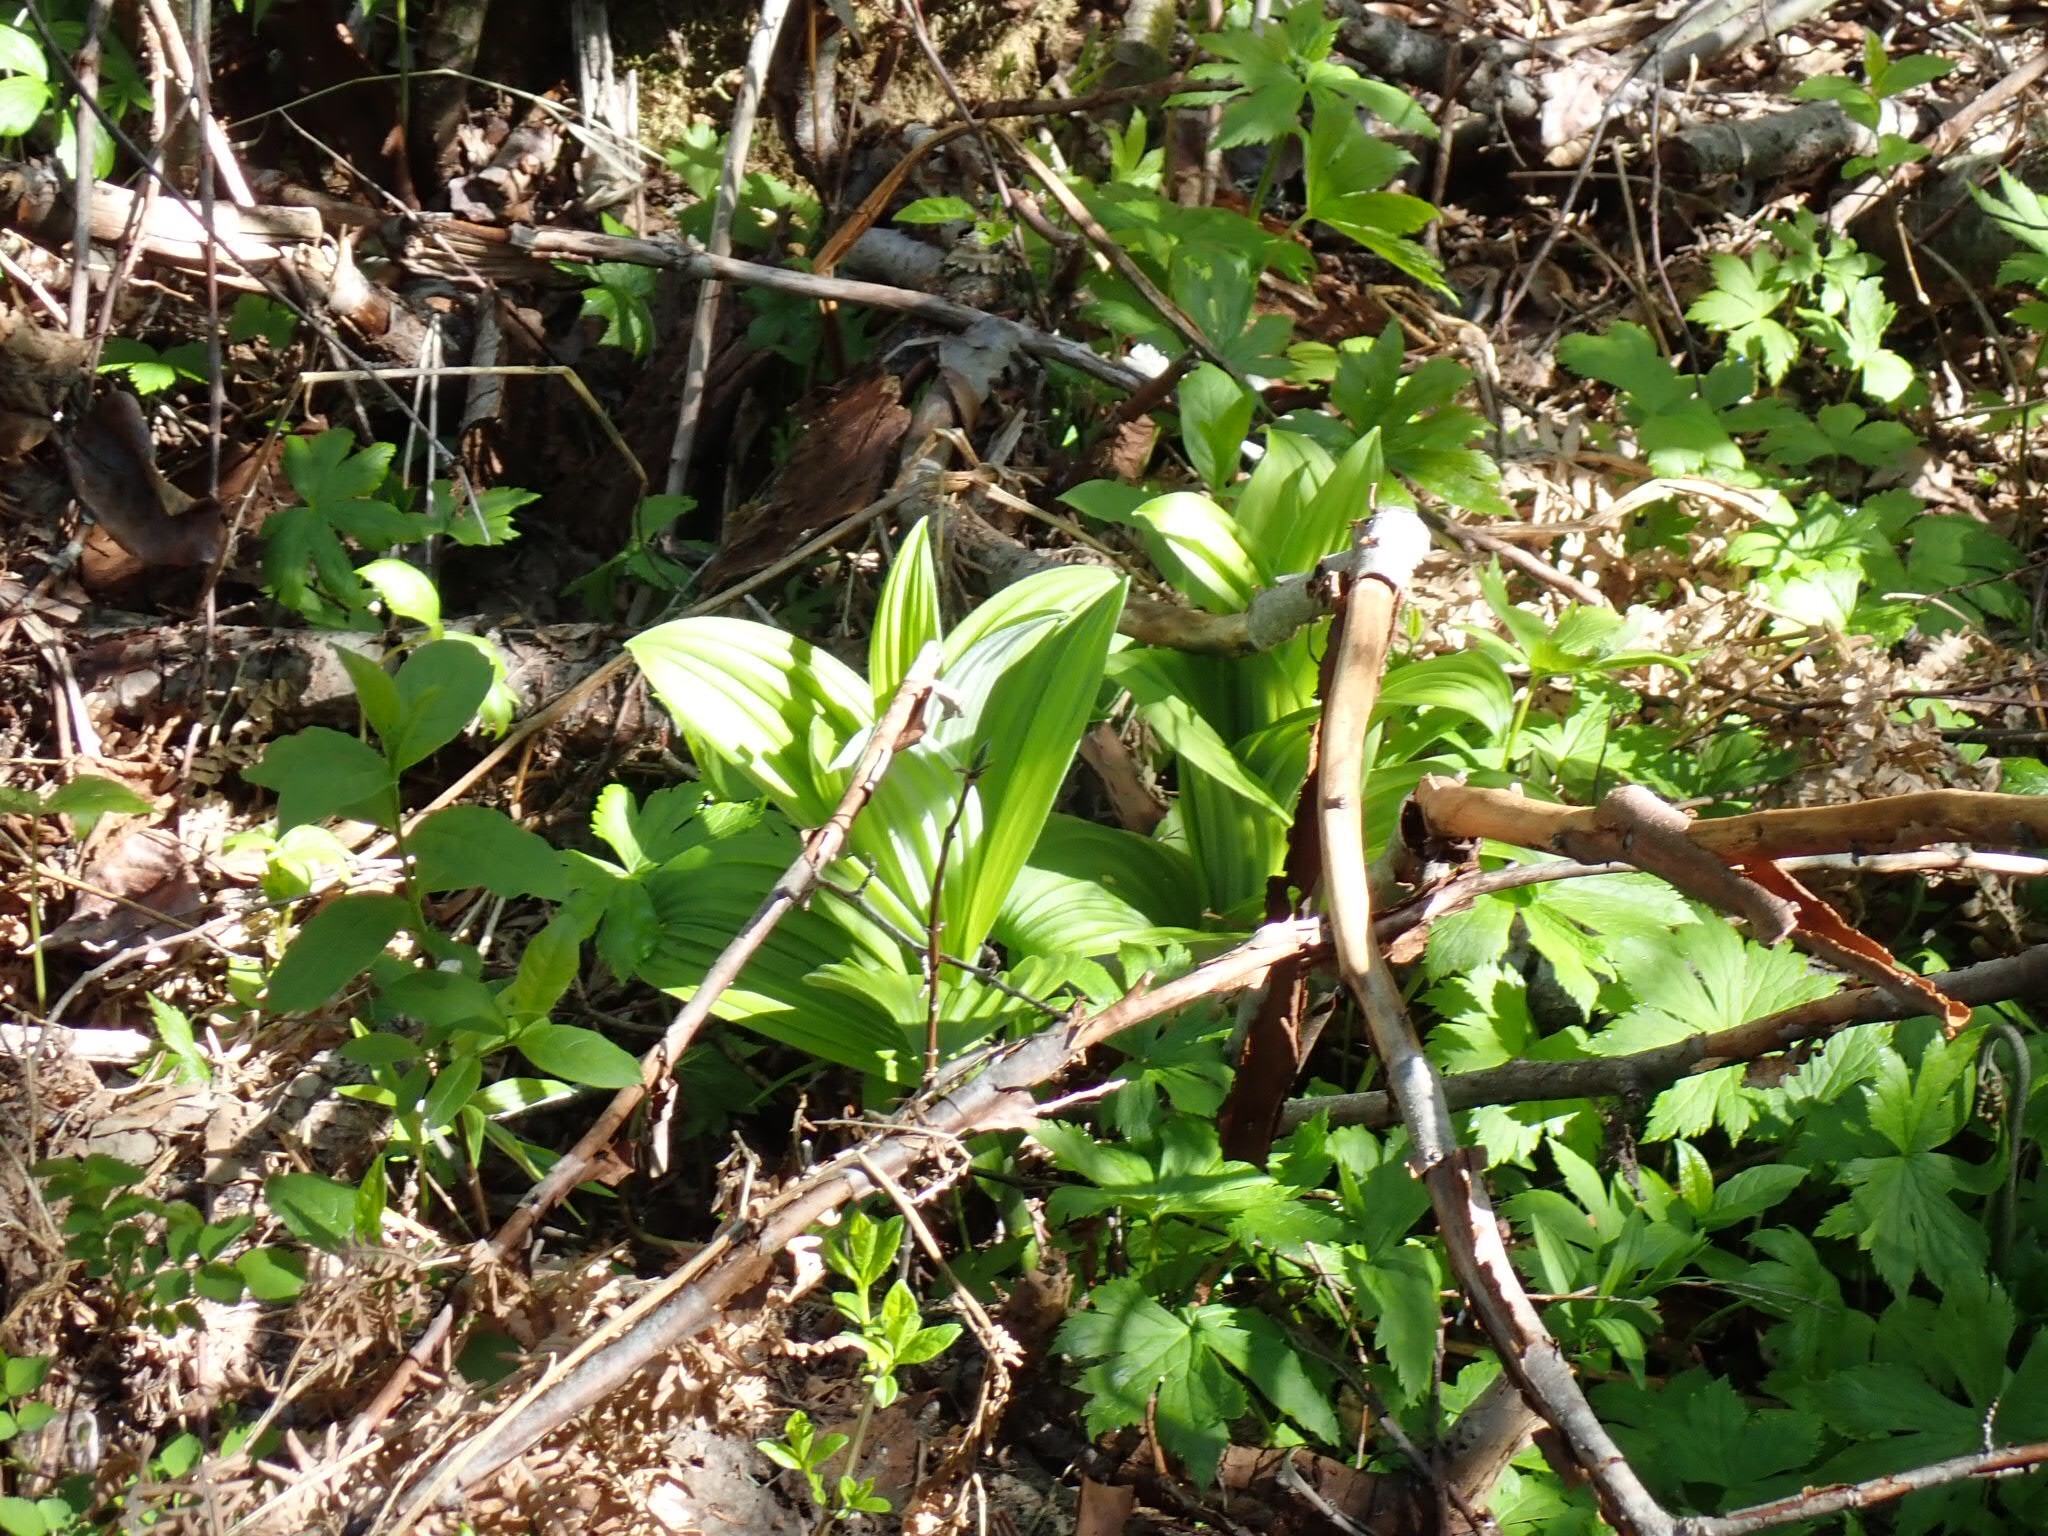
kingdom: Plantae
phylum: Tracheophyta
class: Liliopsida
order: Liliales
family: Melanthiaceae
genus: Veratrum
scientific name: Veratrum viride
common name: American false hellebore
